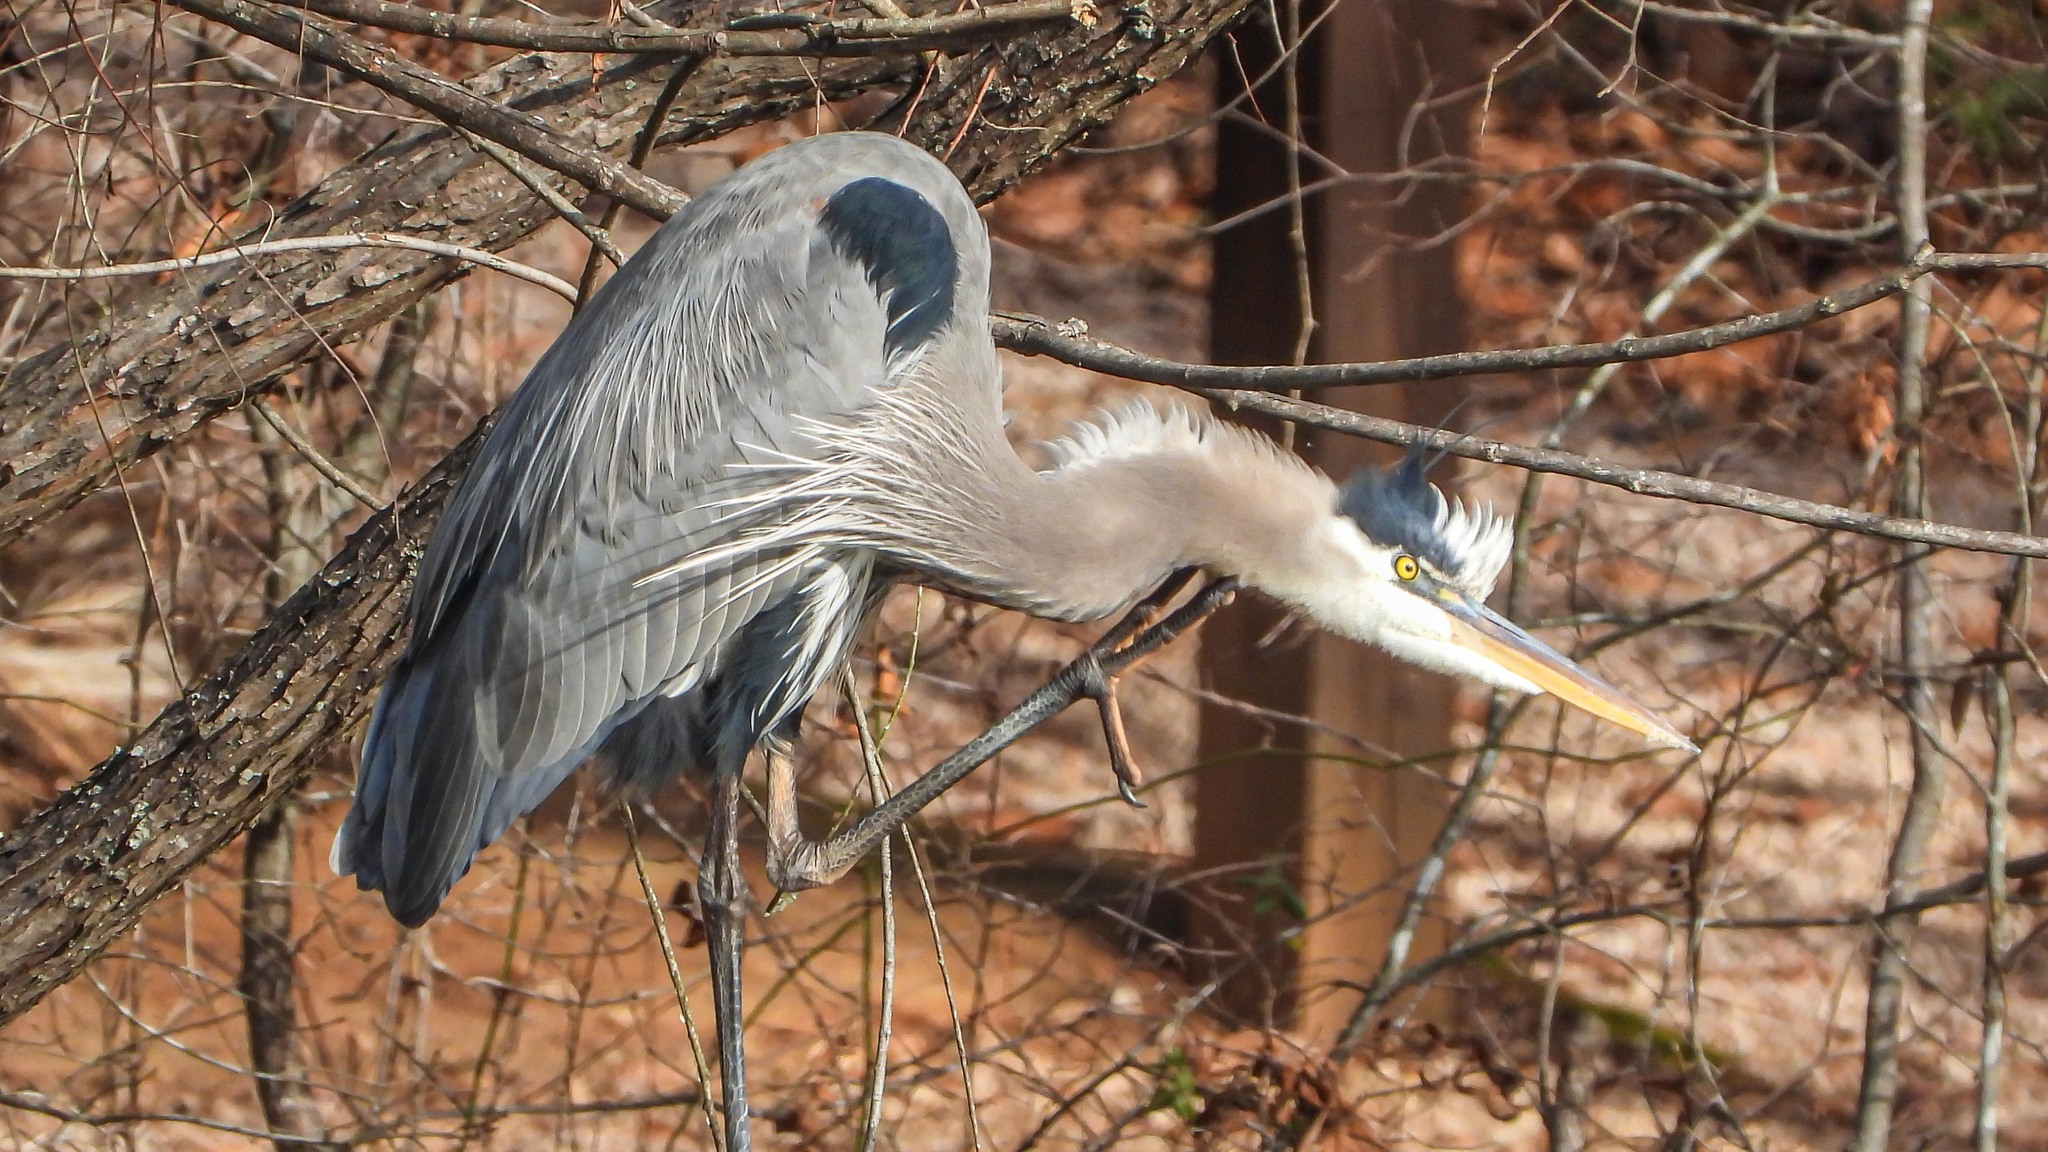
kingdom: Animalia
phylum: Chordata
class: Aves
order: Pelecaniformes
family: Ardeidae
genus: Ardea
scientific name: Ardea herodias
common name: Great blue heron
